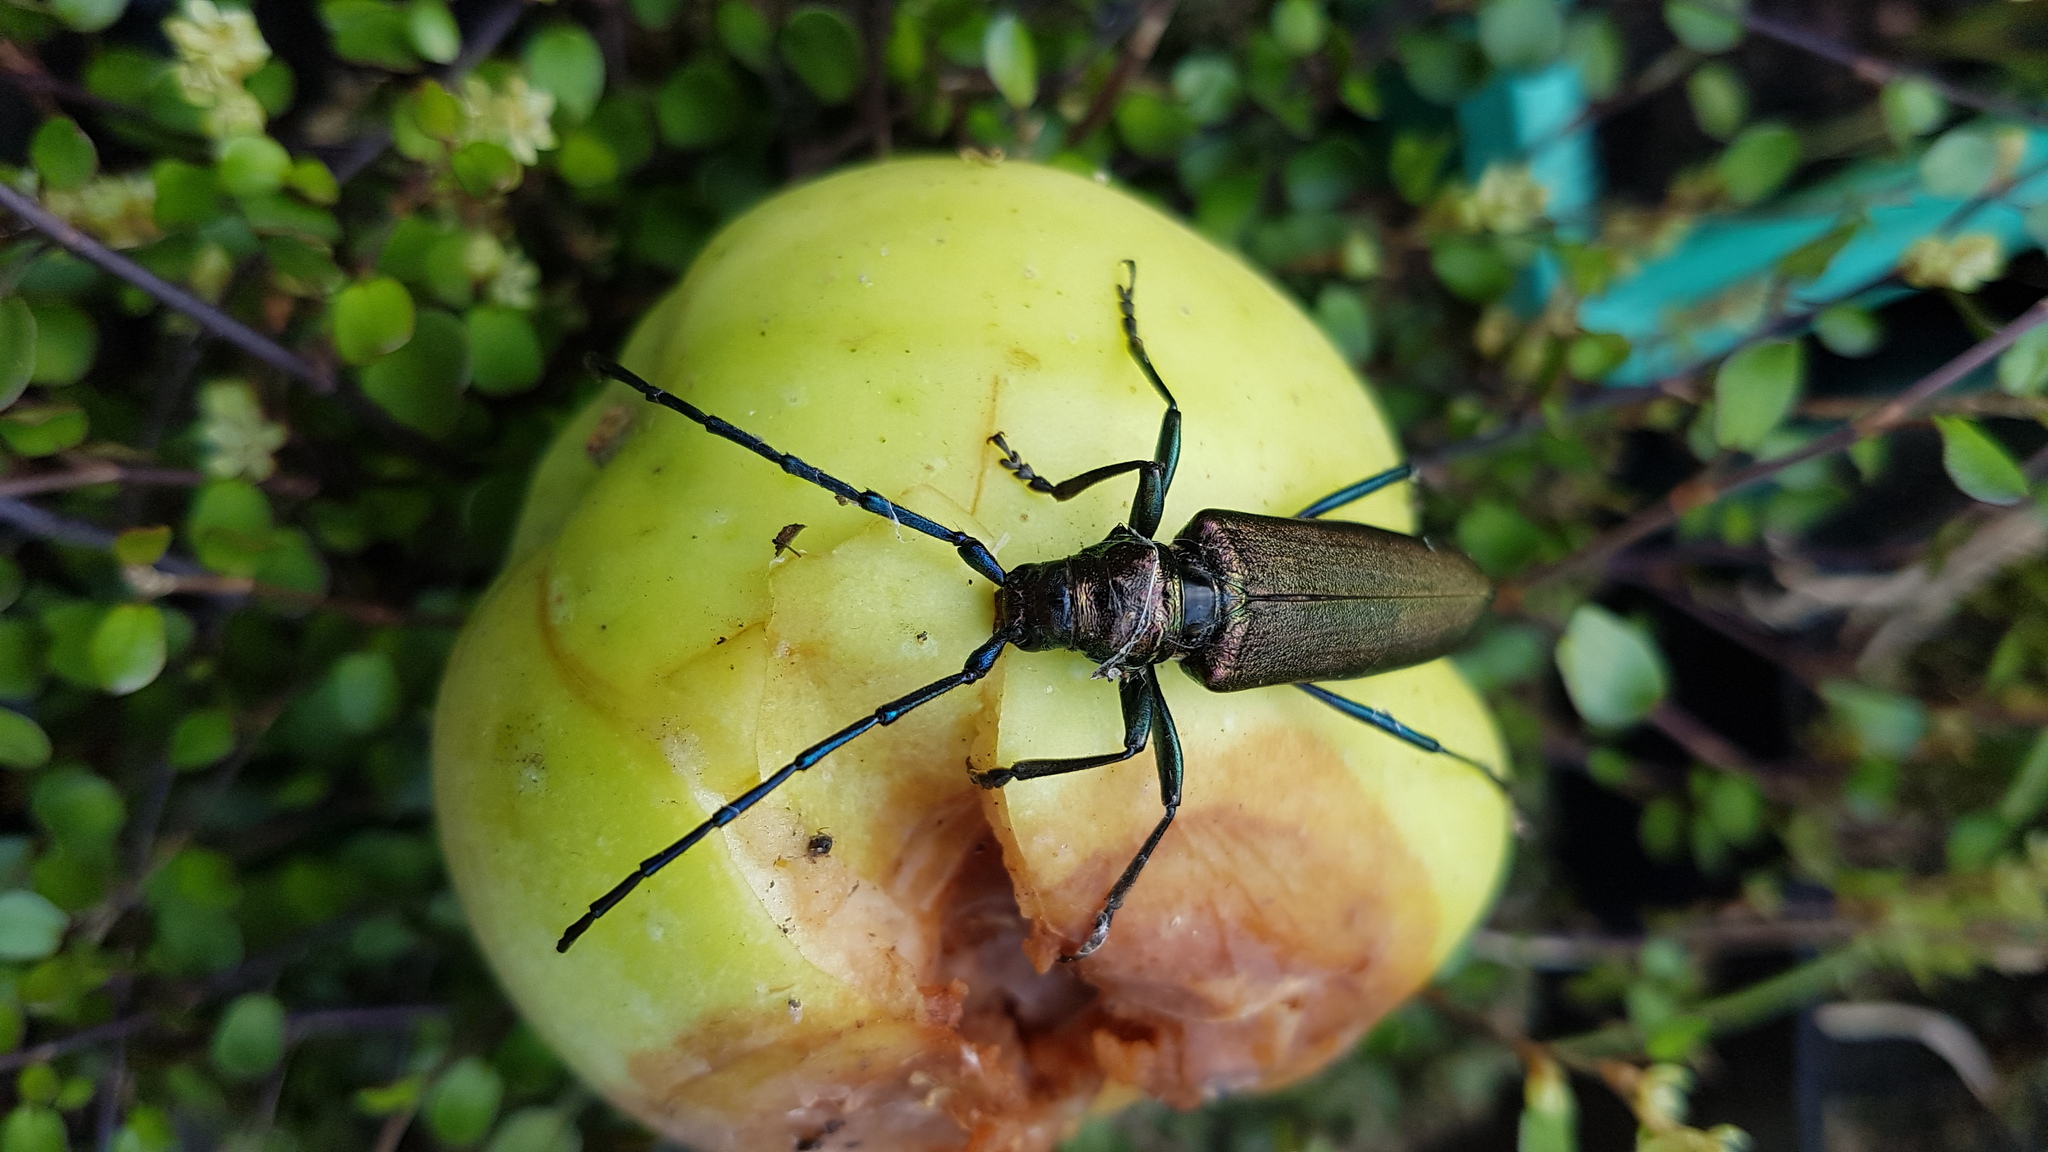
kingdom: Animalia
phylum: Arthropoda
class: Insecta
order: Coleoptera
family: Cerambycidae
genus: Aromia
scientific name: Aromia moschata
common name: Musk beetle
